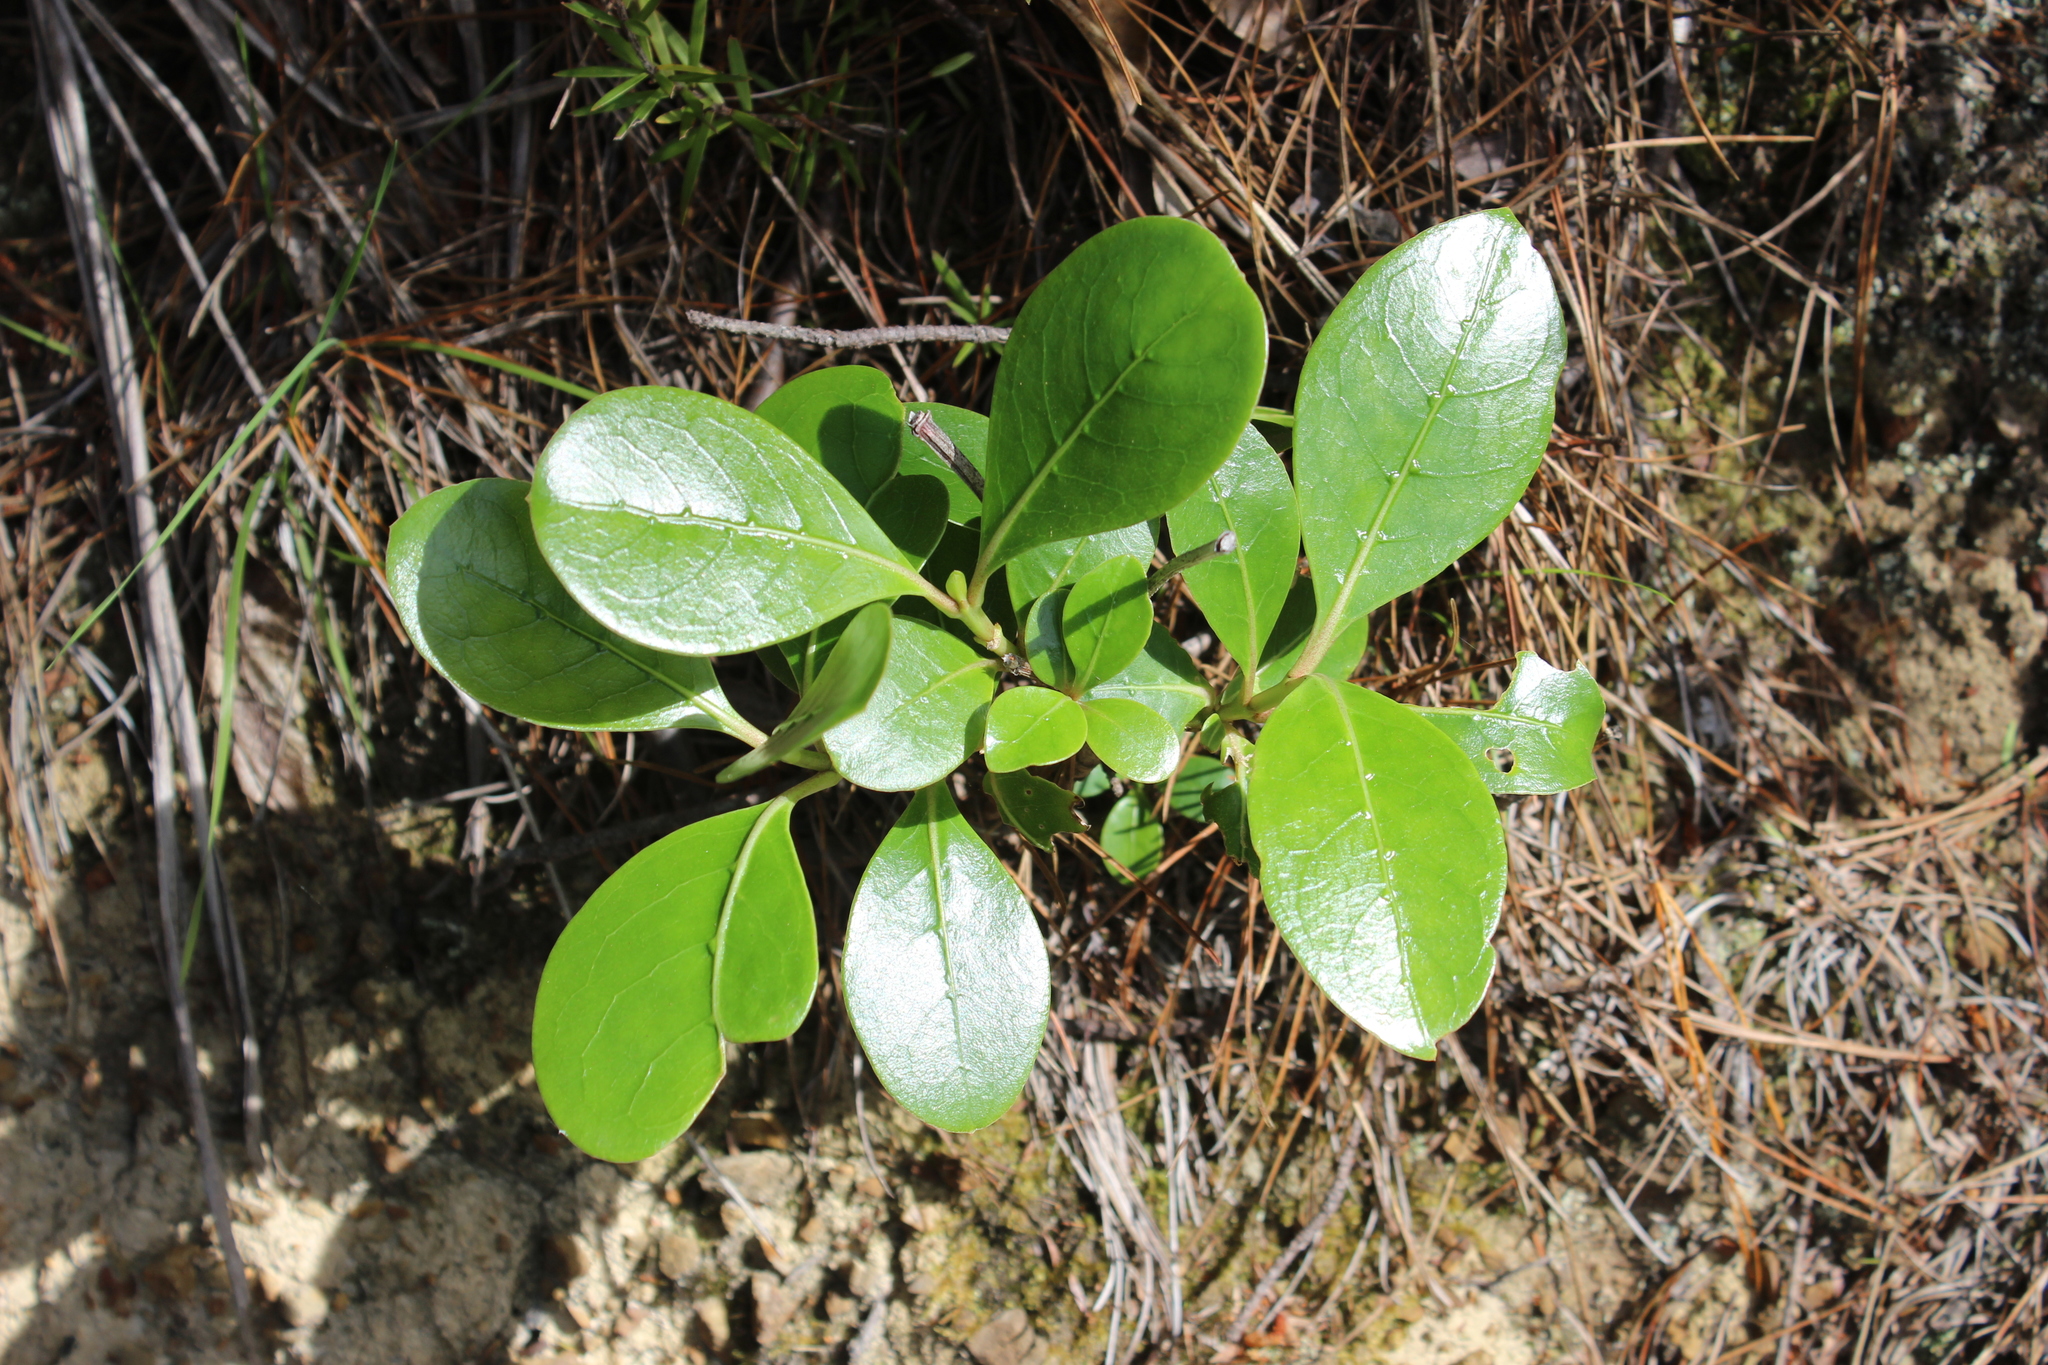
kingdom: Plantae
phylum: Tracheophyta
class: Magnoliopsida
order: Gentianales
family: Rubiaceae
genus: Coprosma
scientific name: Coprosma lucida
